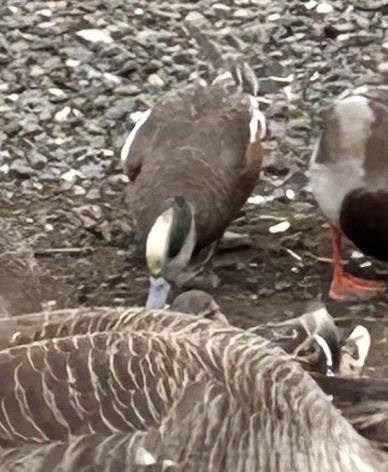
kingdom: Animalia
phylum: Chordata
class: Aves
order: Anseriformes
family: Anatidae
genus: Mareca
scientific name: Mareca americana
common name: American wigeon
